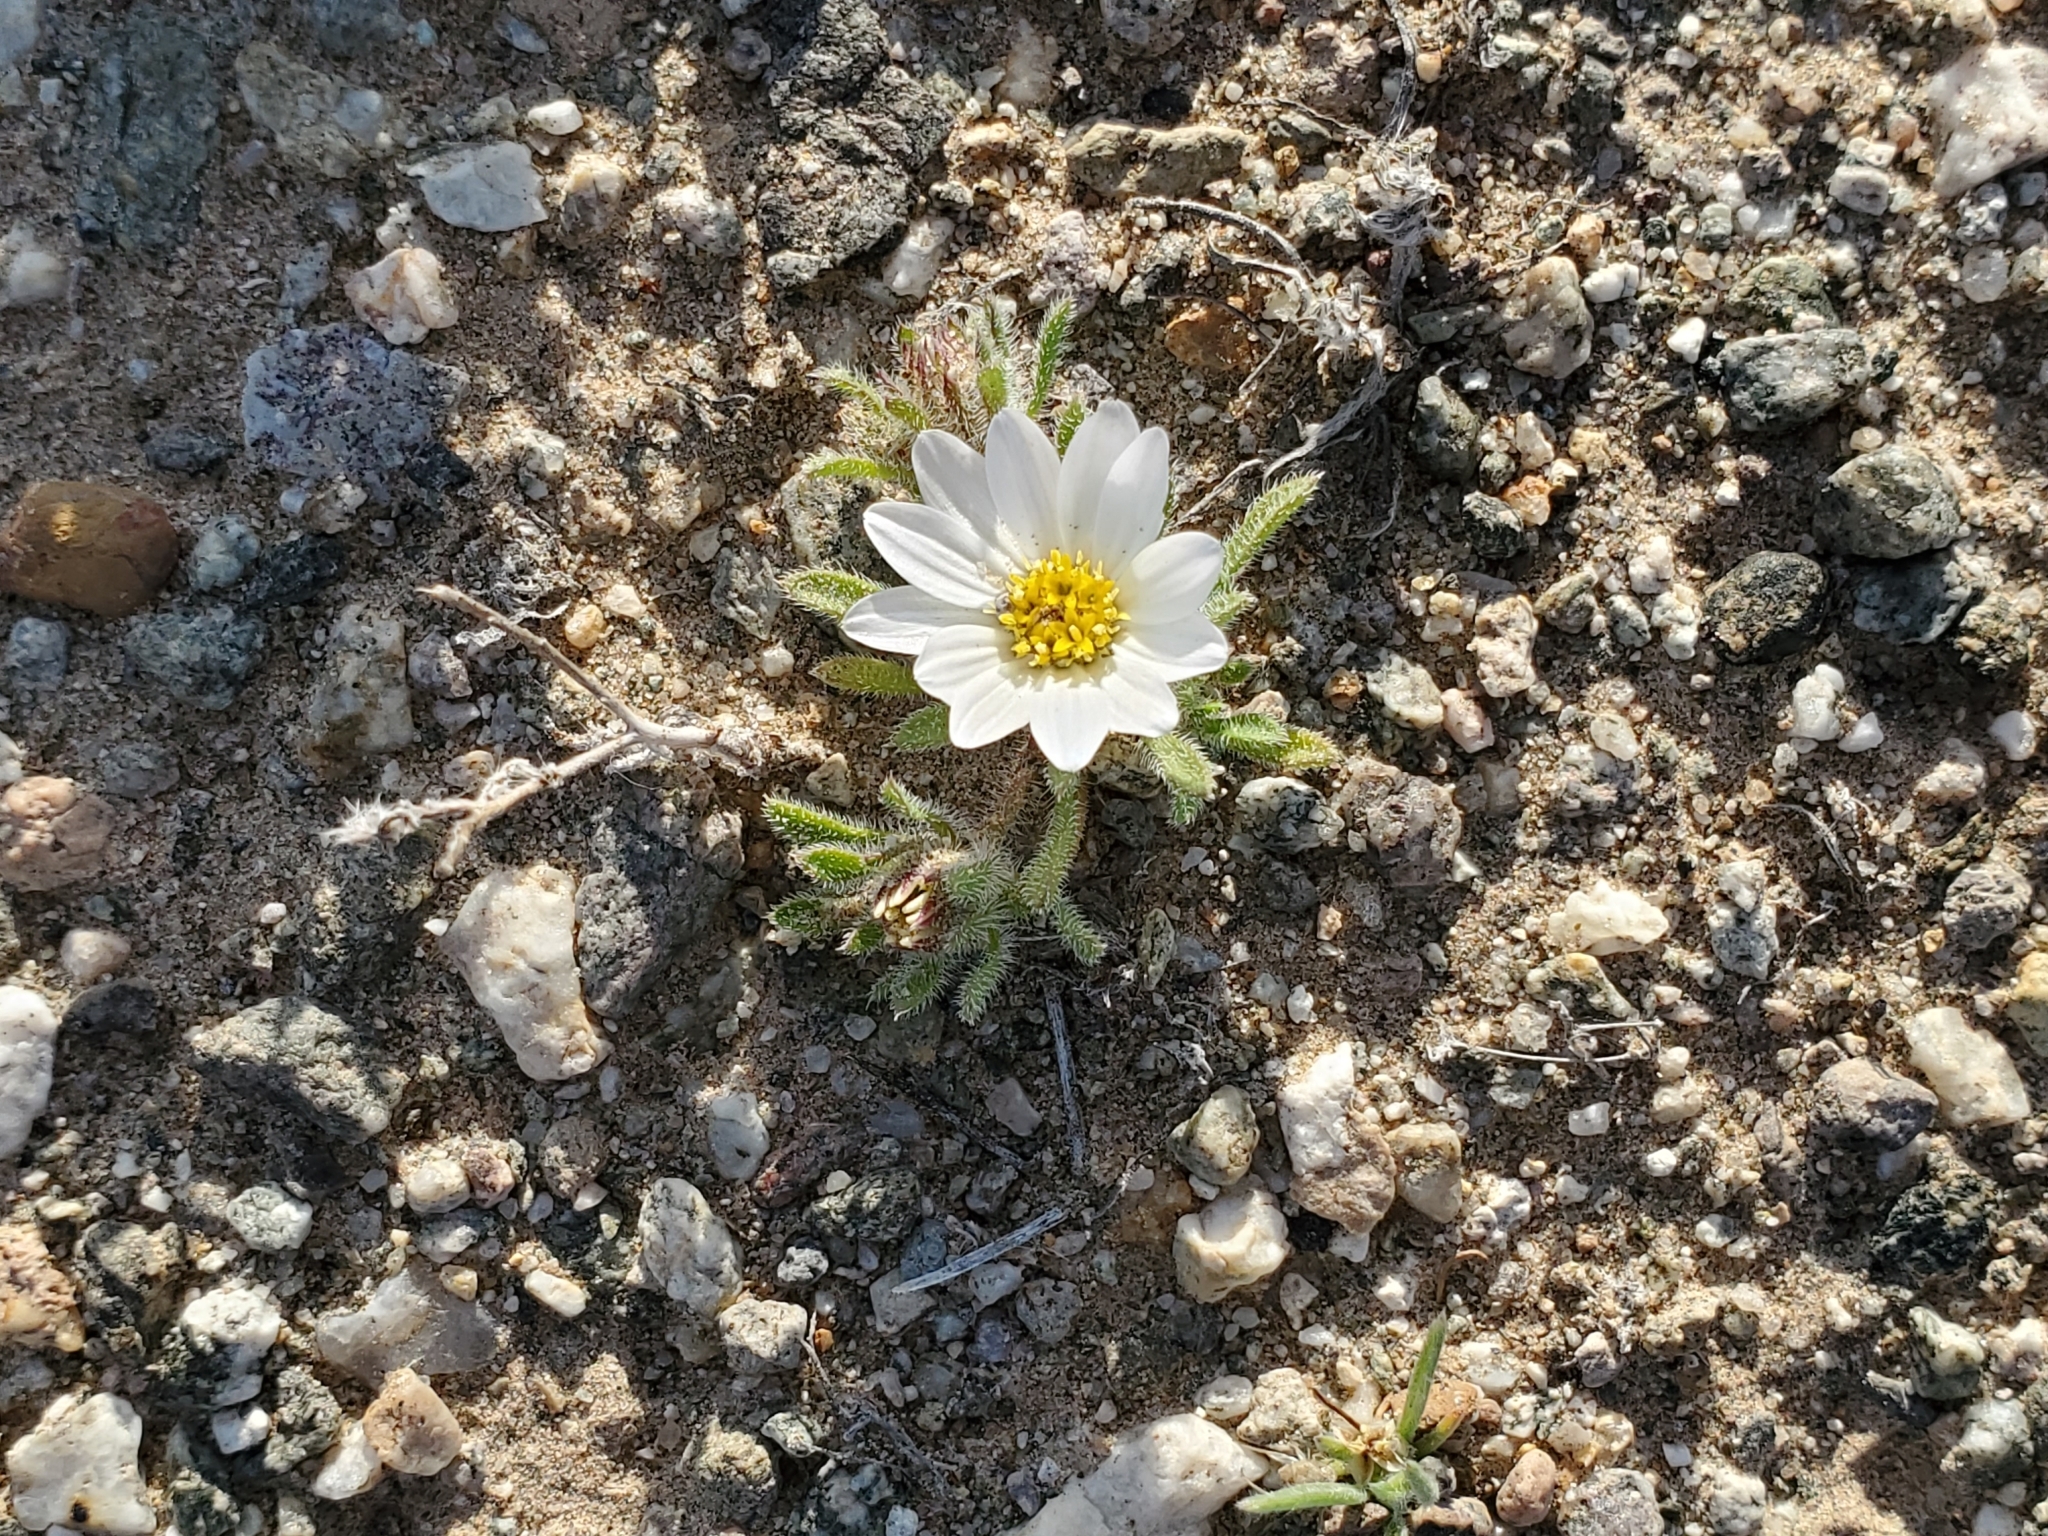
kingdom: Plantae
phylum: Tracheophyta
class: Magnoliopsida
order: Asterales
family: Asteraceae
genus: Monoptilon
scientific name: Monoptilon bellioides
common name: Bristly desertstar
